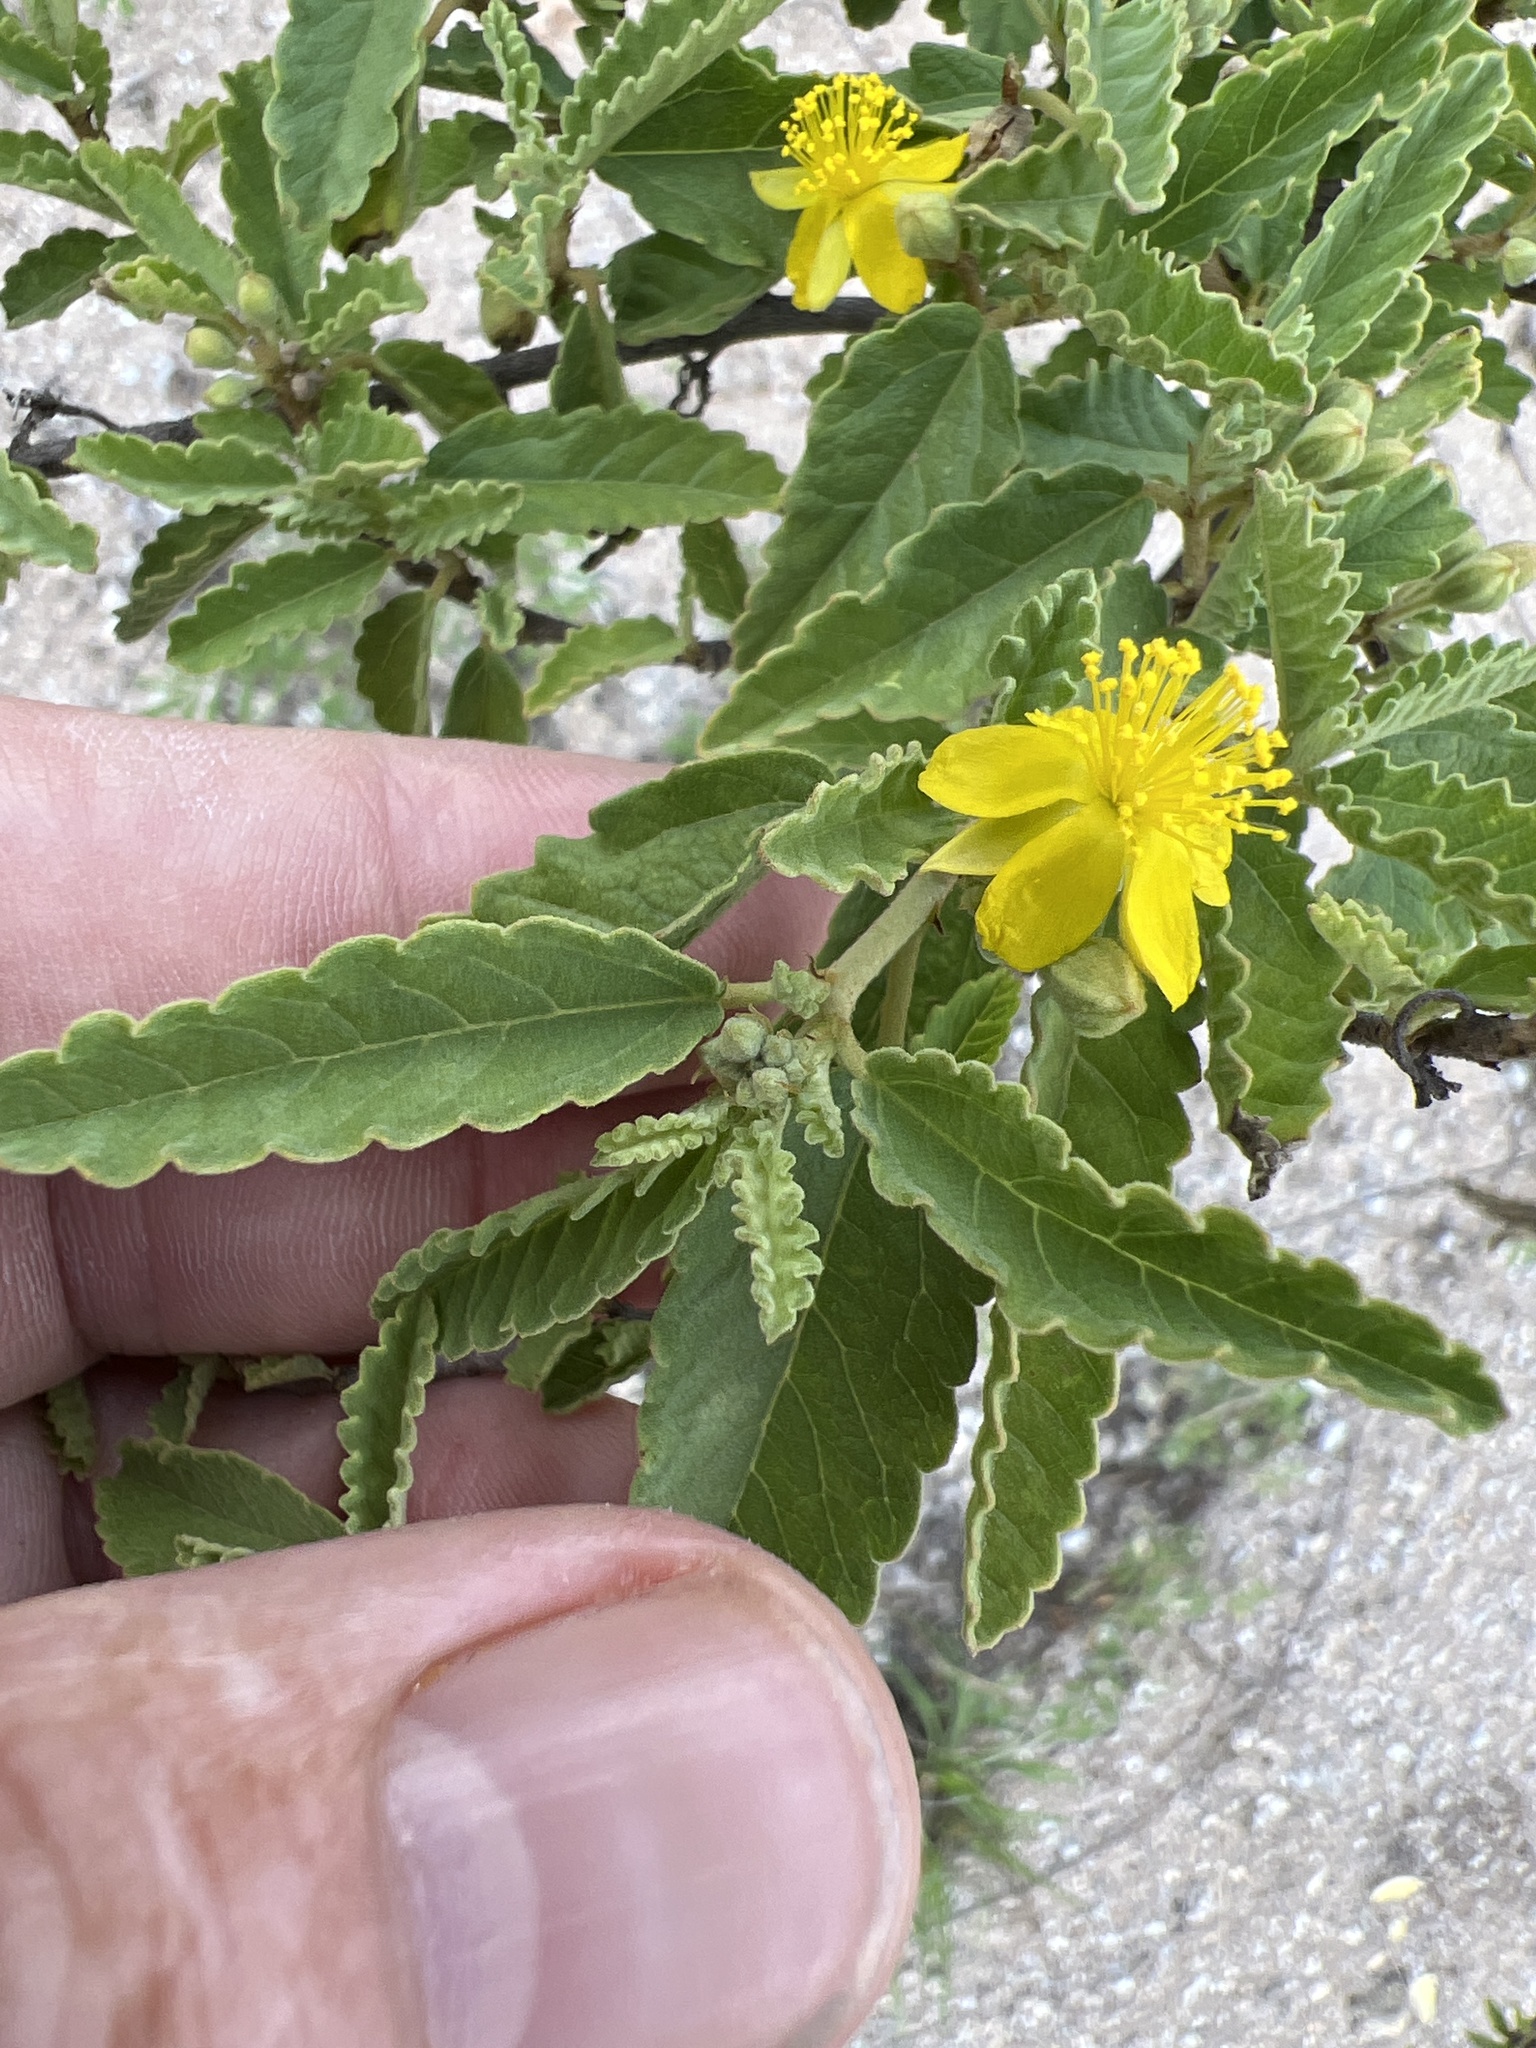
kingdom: Plantae
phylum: Tracheophyta
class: Magnoliopsida
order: Malvales
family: Malvaceae
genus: Corchorus
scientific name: Corchorus hirsutus
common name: Jackswitch
